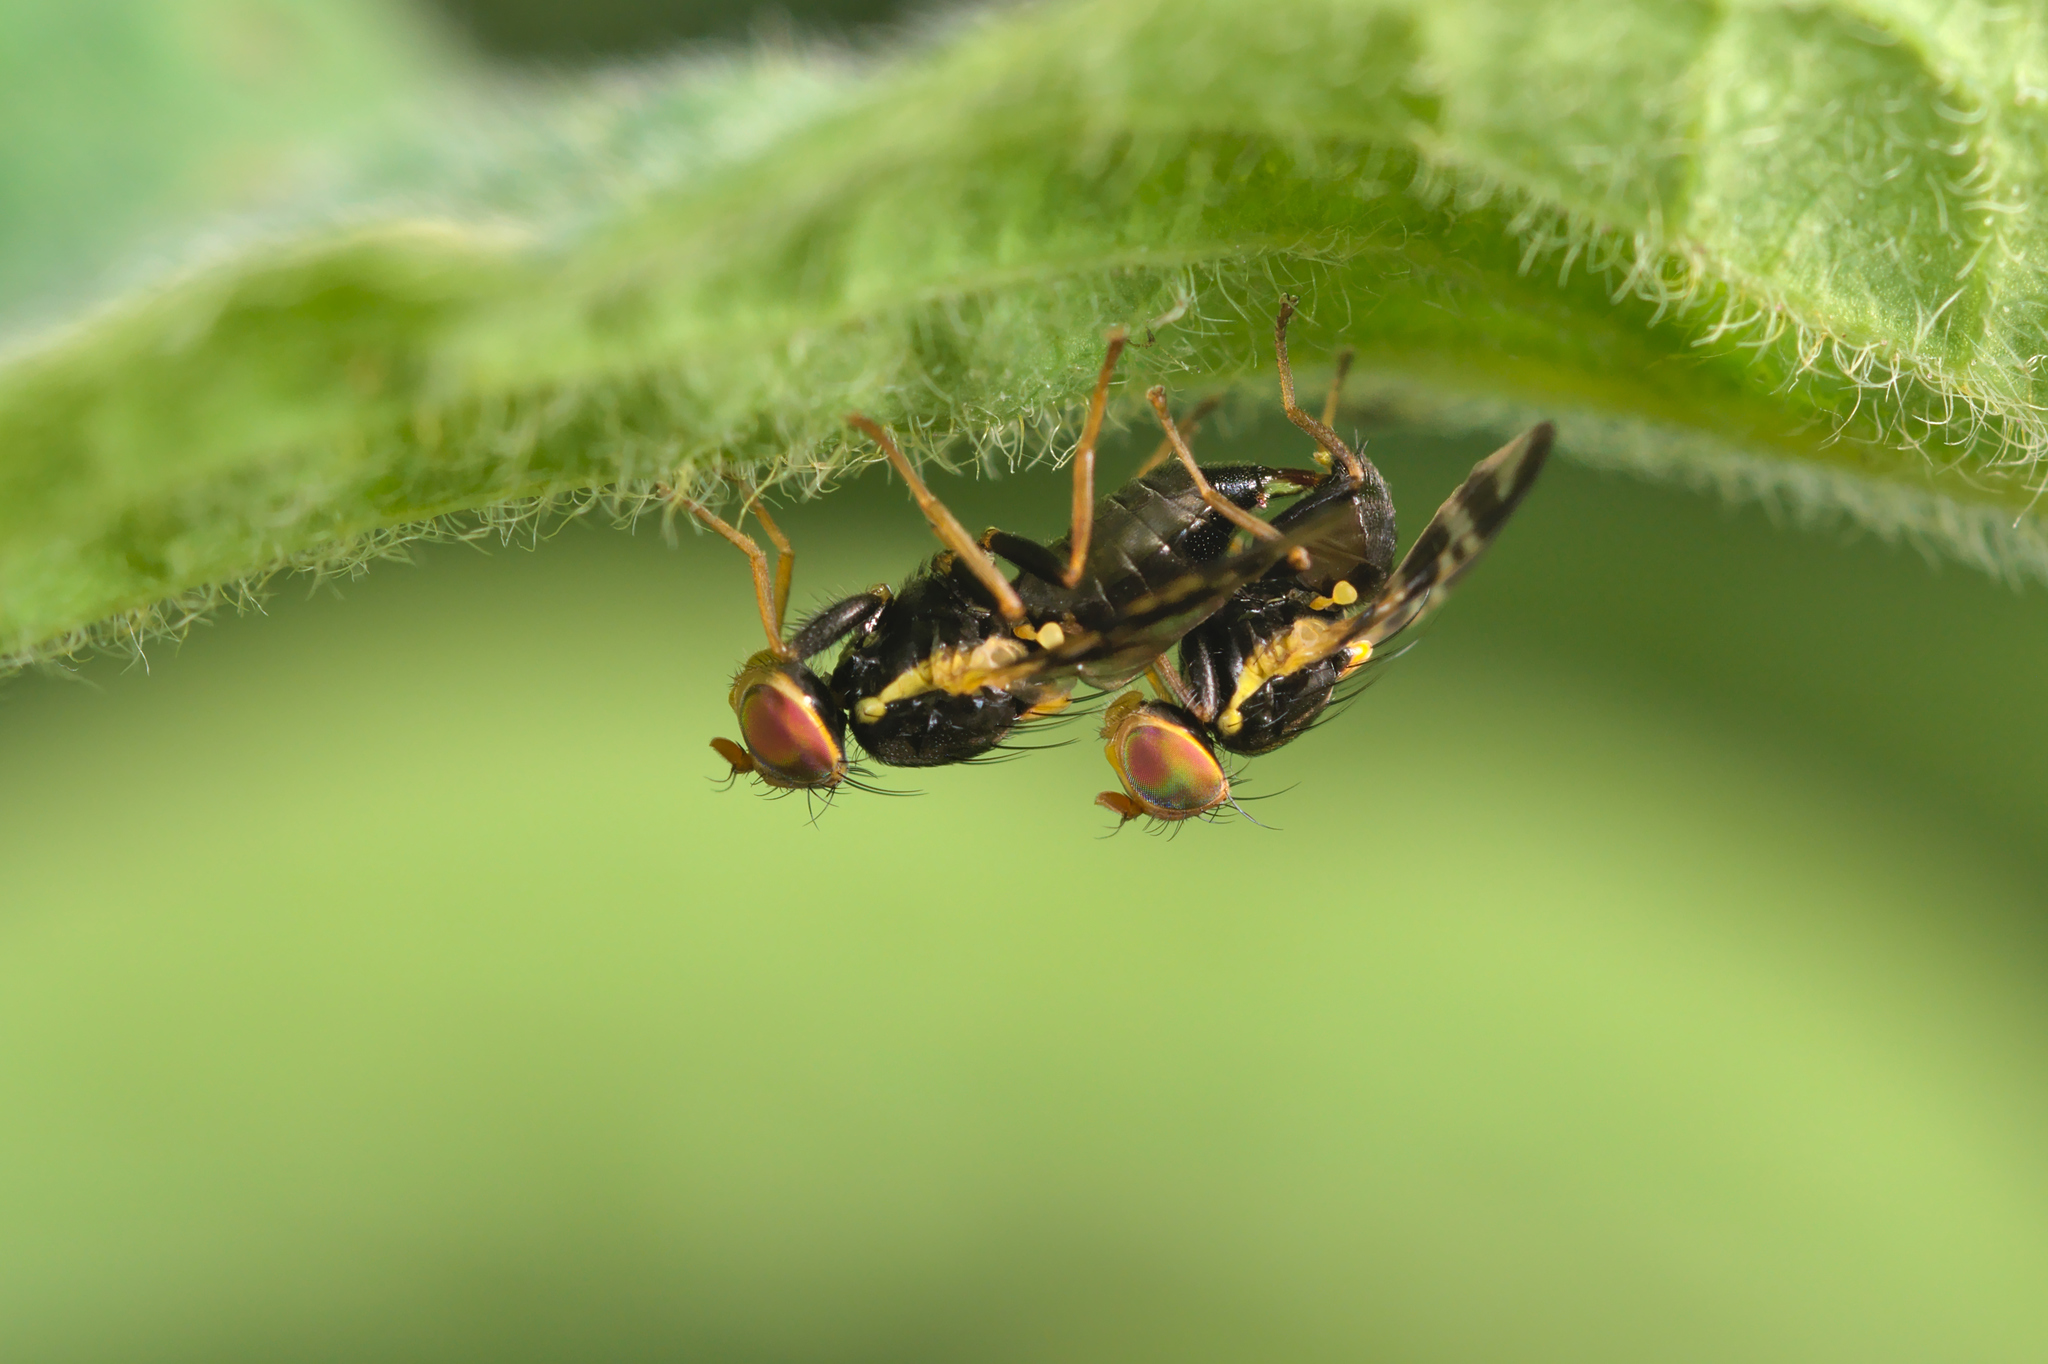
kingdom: Animalia
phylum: Arthropoda
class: Insecta
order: Diptera
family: Tephritidae
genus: Rhagoletis
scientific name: Rhagoletis cerasi
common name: European cherry fruit fly
